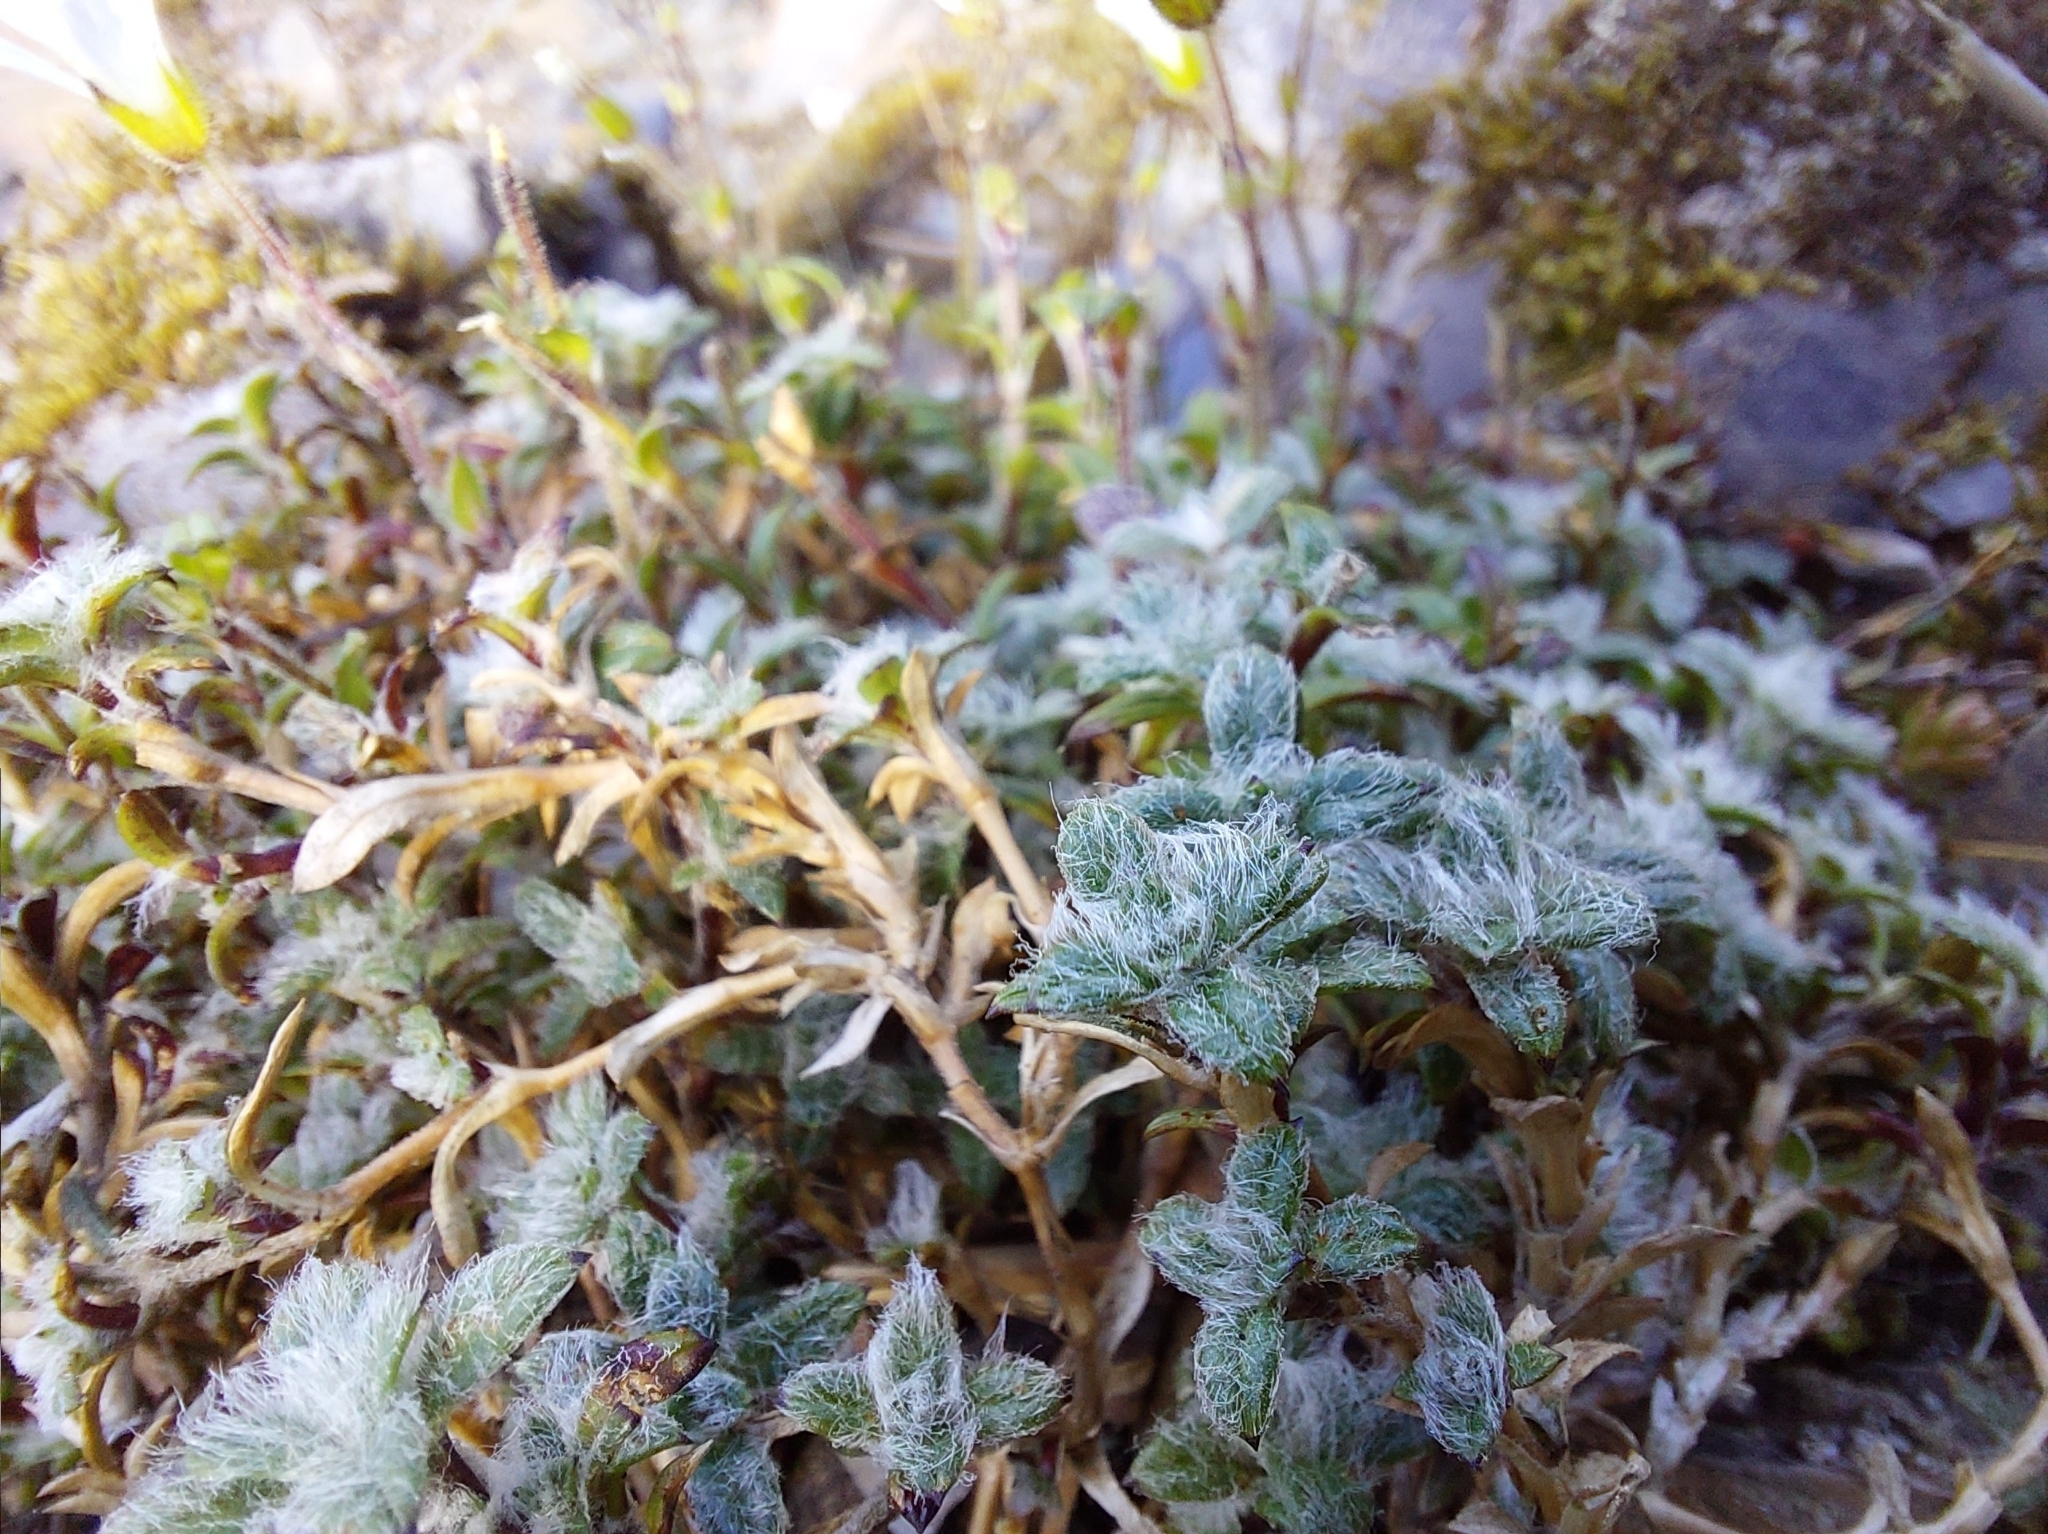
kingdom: Plantae
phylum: Tracheophyta
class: Magnoliopsida
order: Caryophyllales
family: Caryophyllaceae
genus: Cerastium
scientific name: Cerastium morrisonense
